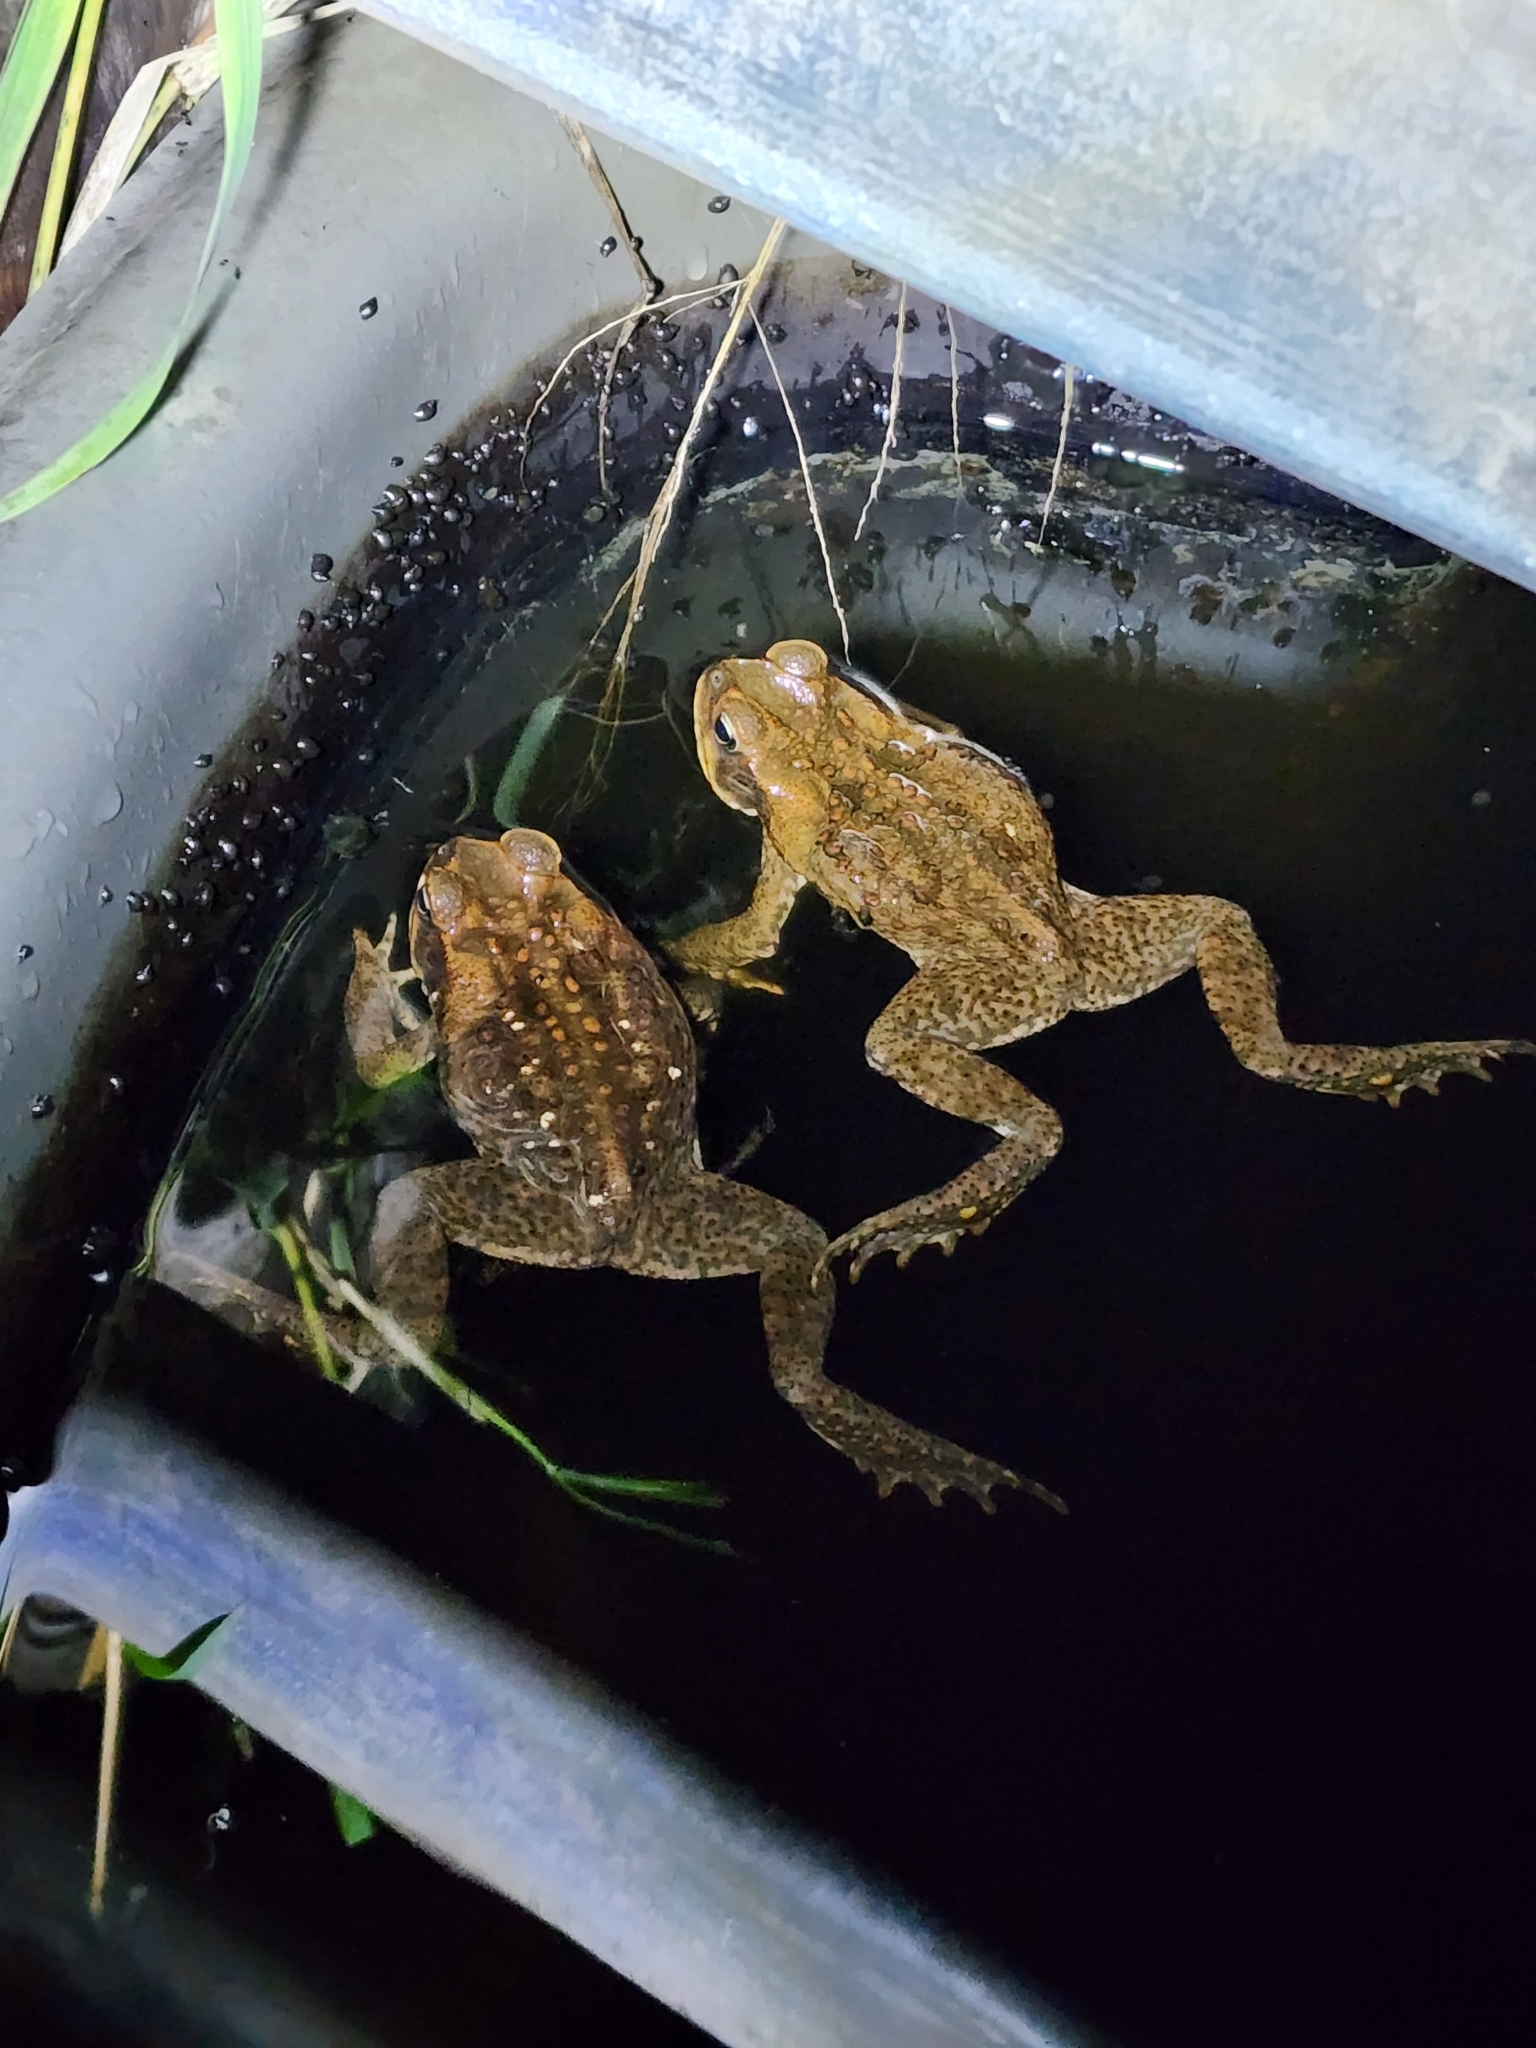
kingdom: Animalia
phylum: Chordata
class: Amphibia
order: Anura
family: Bufonidae
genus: Rhinella
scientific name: Rhinella marina
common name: Cane toad
